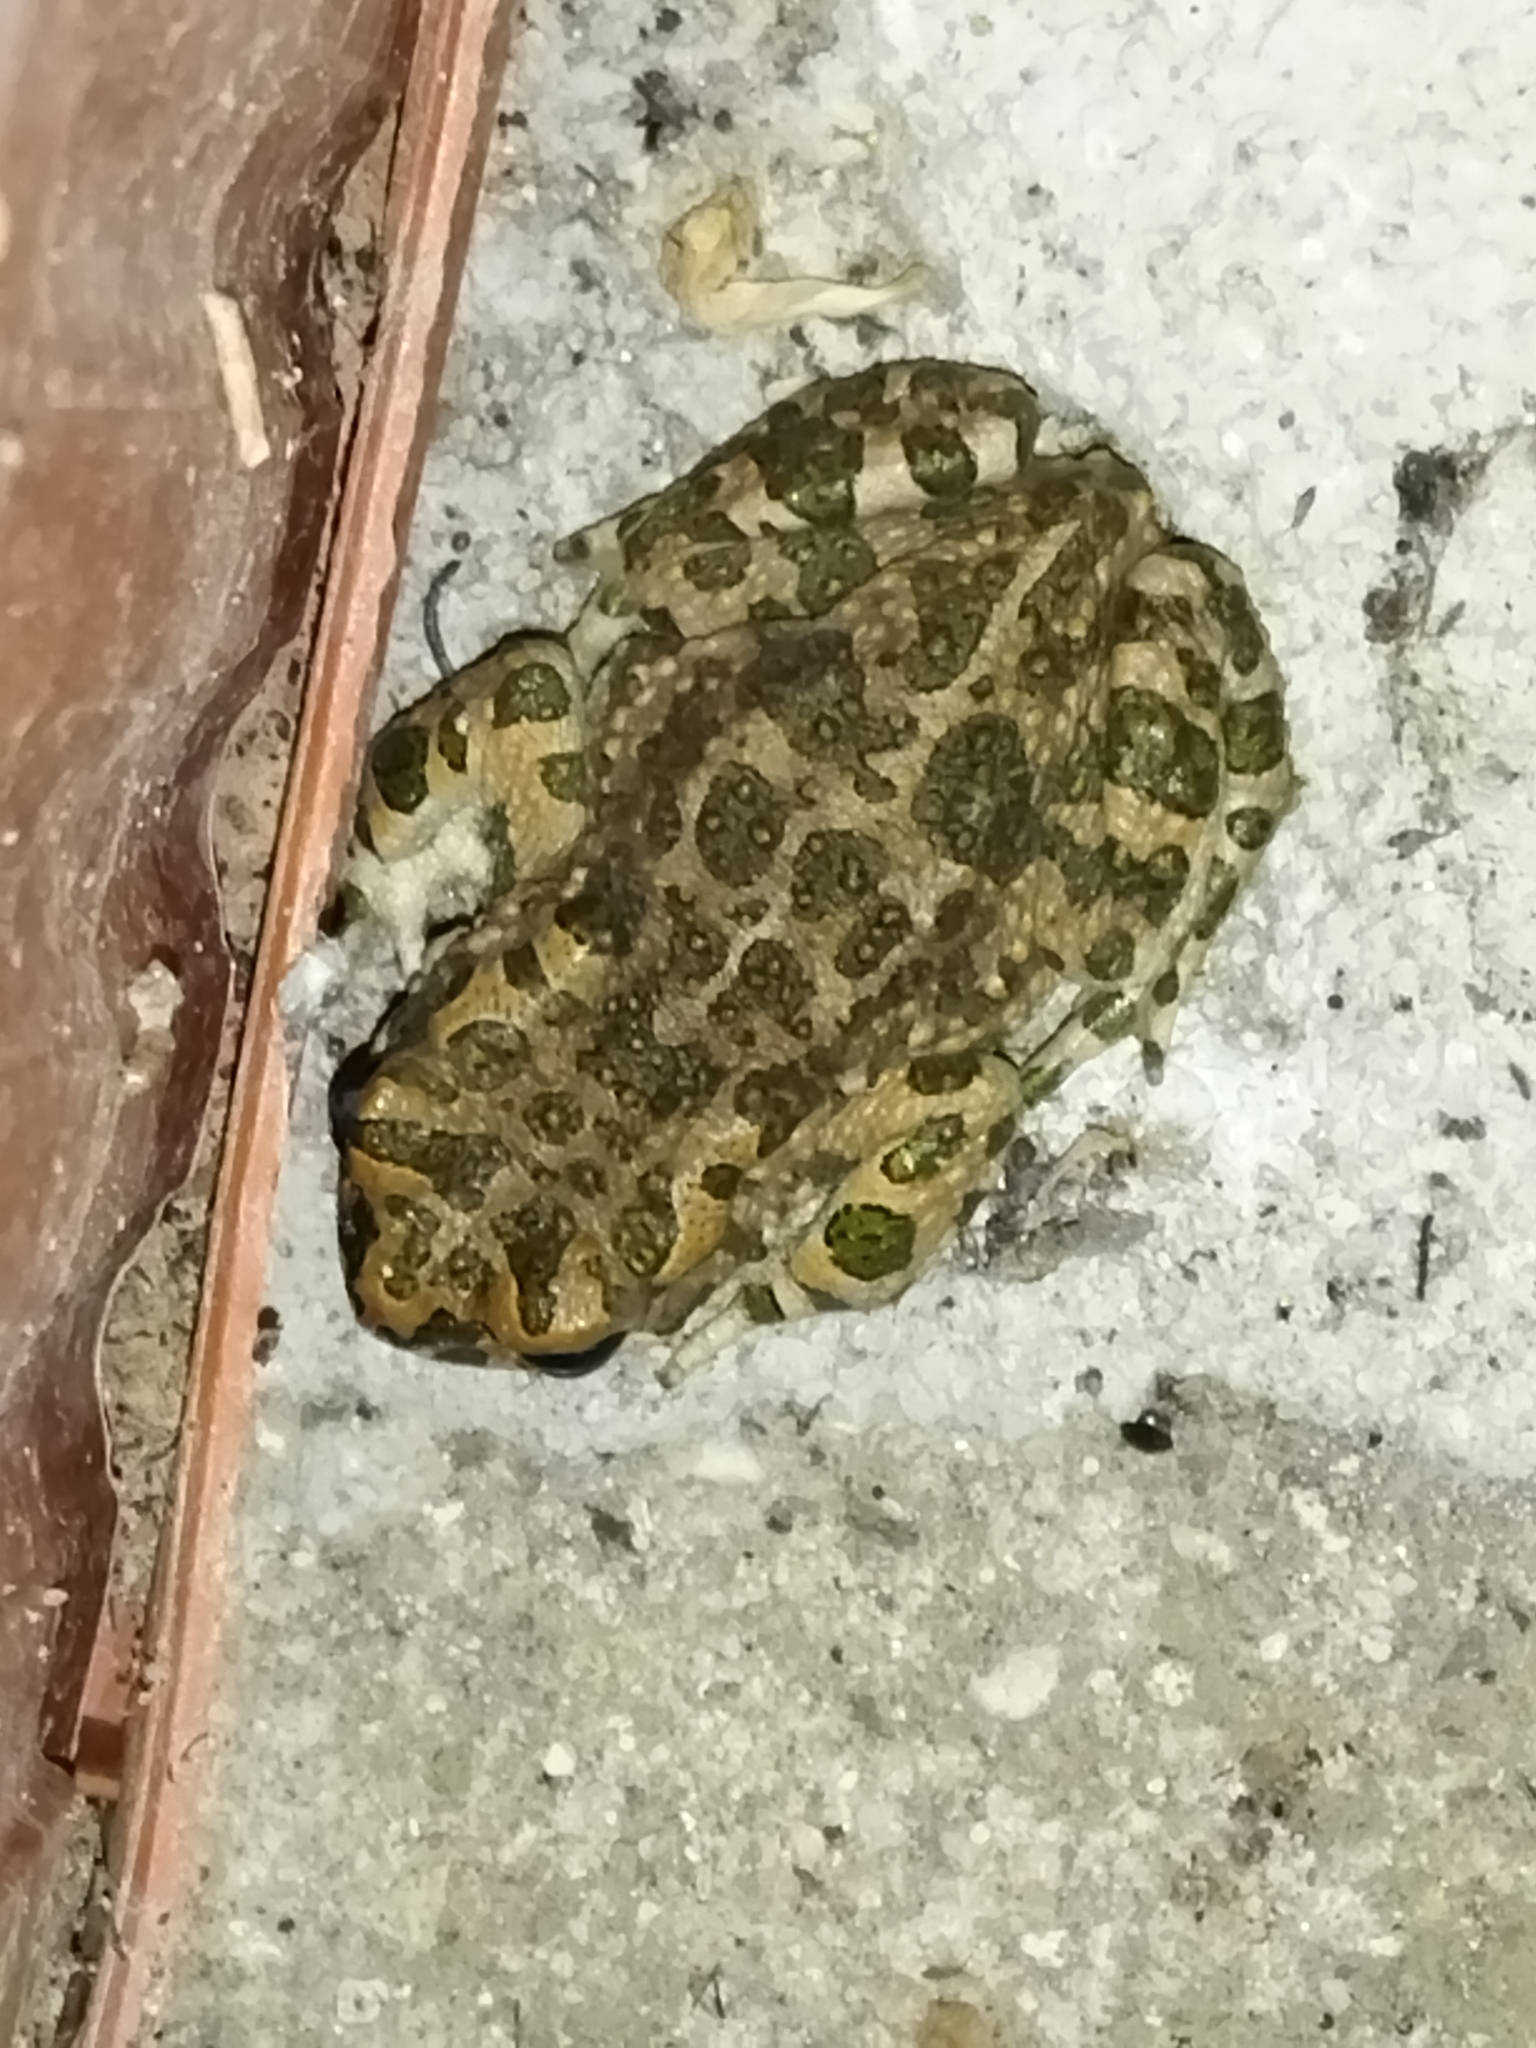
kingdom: Animalia
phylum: Chordata
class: Amphibia
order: Anura
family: Bufonidae
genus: Bufotes
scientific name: Bufotes viridis
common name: European green toad
